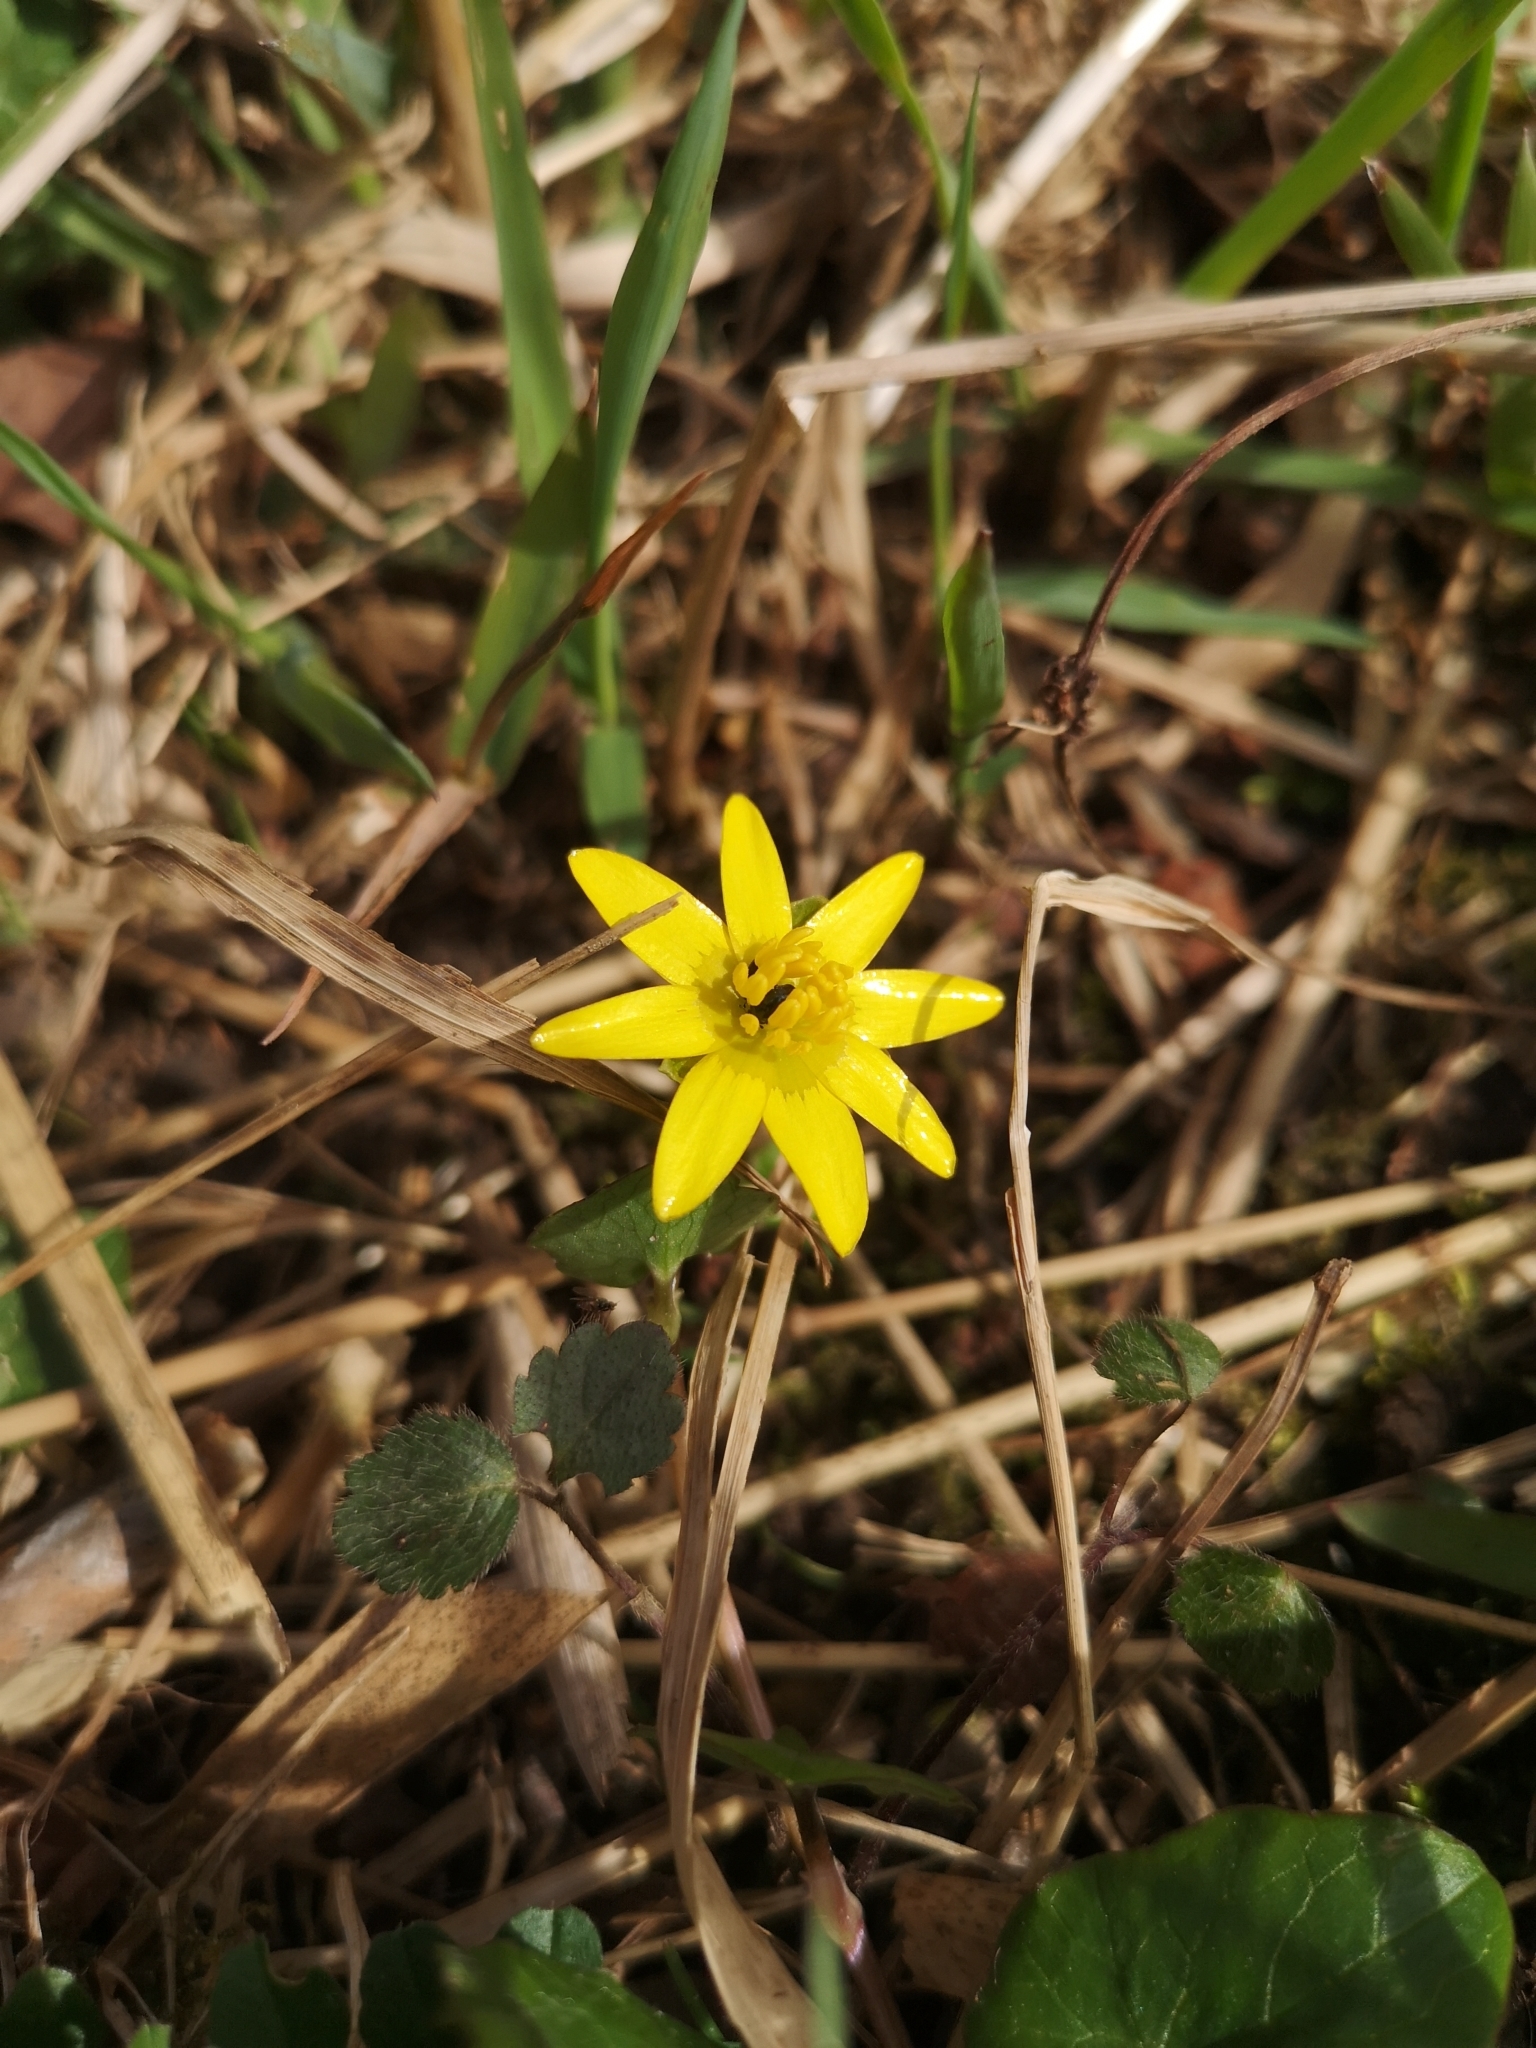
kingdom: Plantae
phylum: Tracheophyta
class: Magnoliopsida
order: Ranunculales
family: Ranunculaceae
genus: Ficaria
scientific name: Ficaria verna
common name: Lesser celandine
